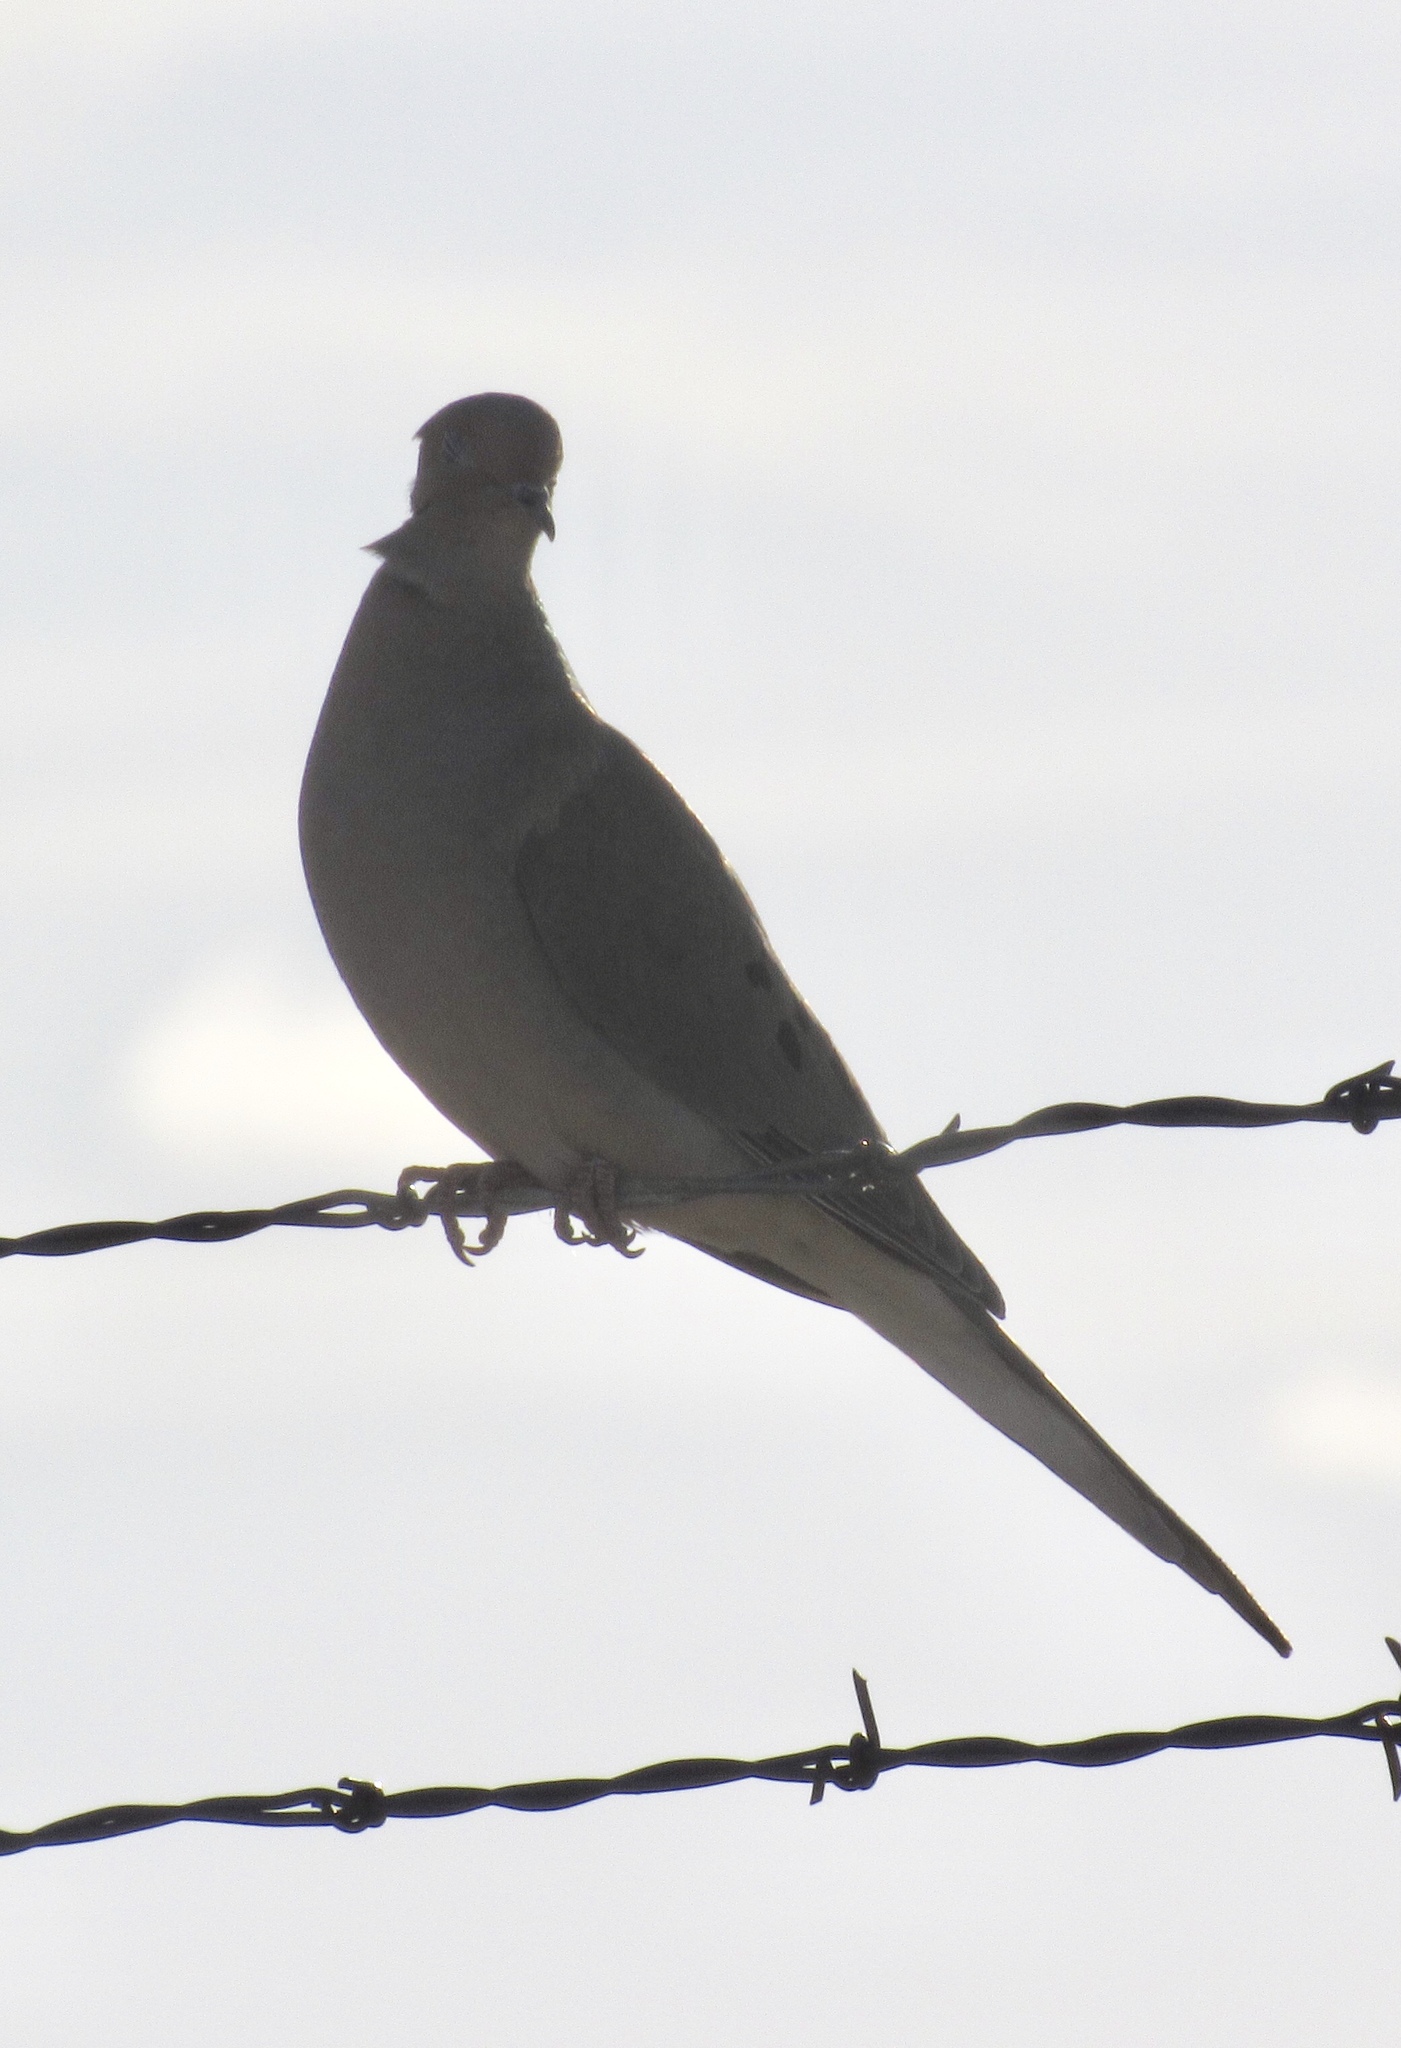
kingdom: Animalia
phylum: Chordata
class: Aves
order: Columbiformes
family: Columbidae
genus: Zenaida
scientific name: Zenaida macroura
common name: Mourning dove
